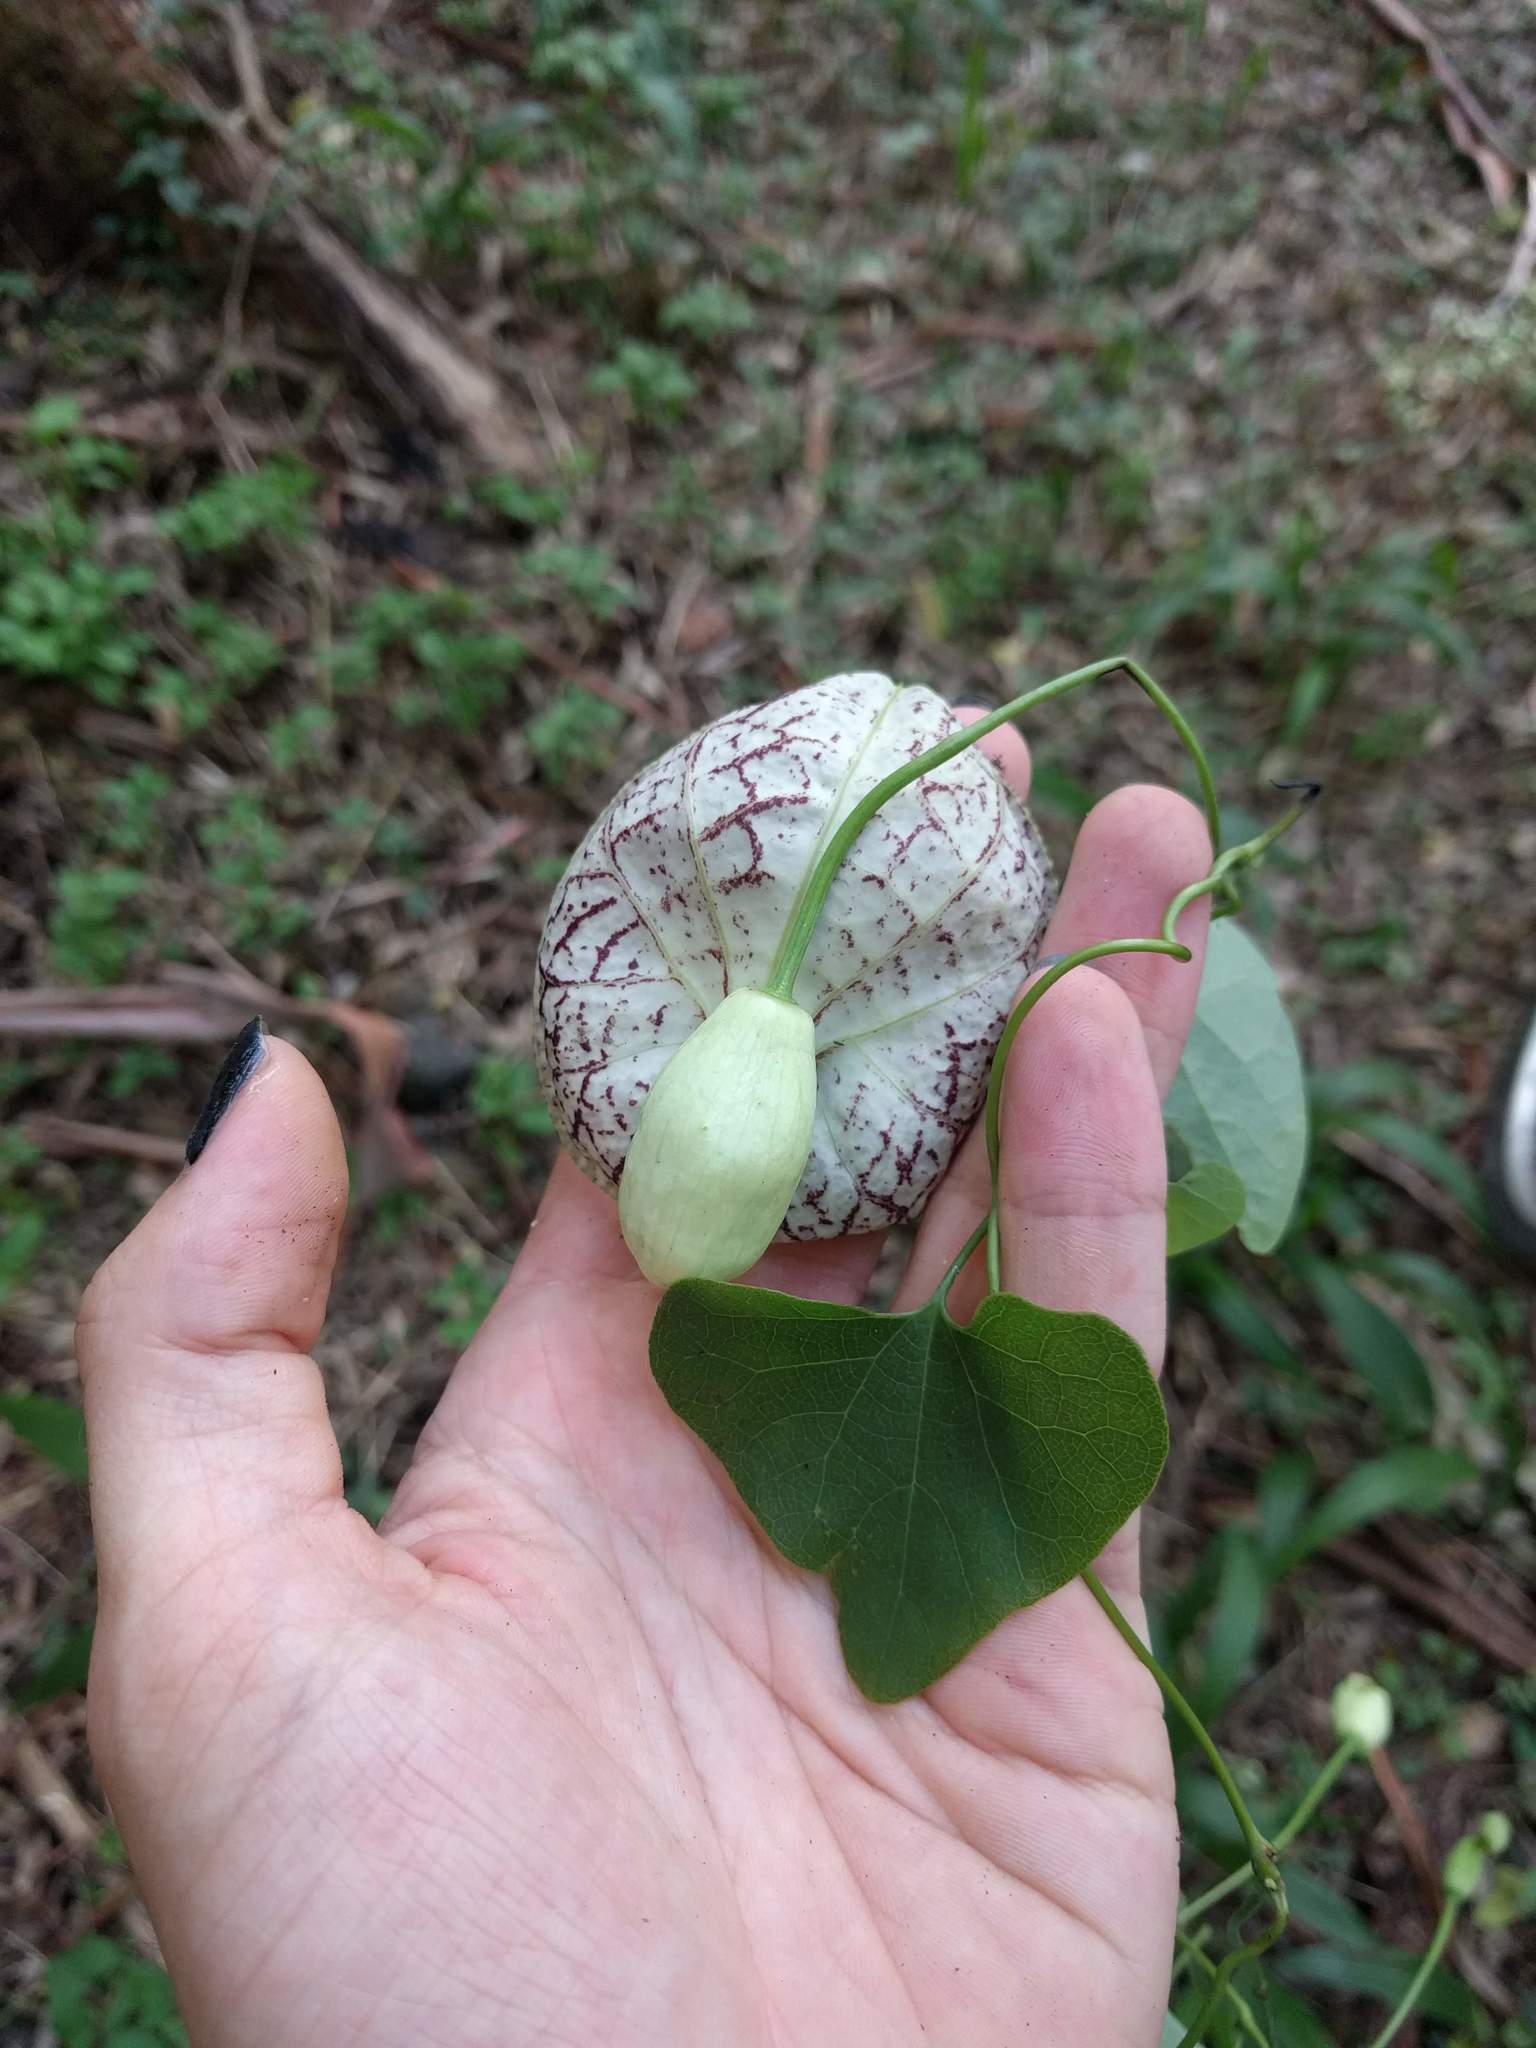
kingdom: Plantae
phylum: Tracheophyta
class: Magnoliopsida
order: Piperales
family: Aristolochiaceae
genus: Aristolochia
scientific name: Aristolochia littoralis
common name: Duck
